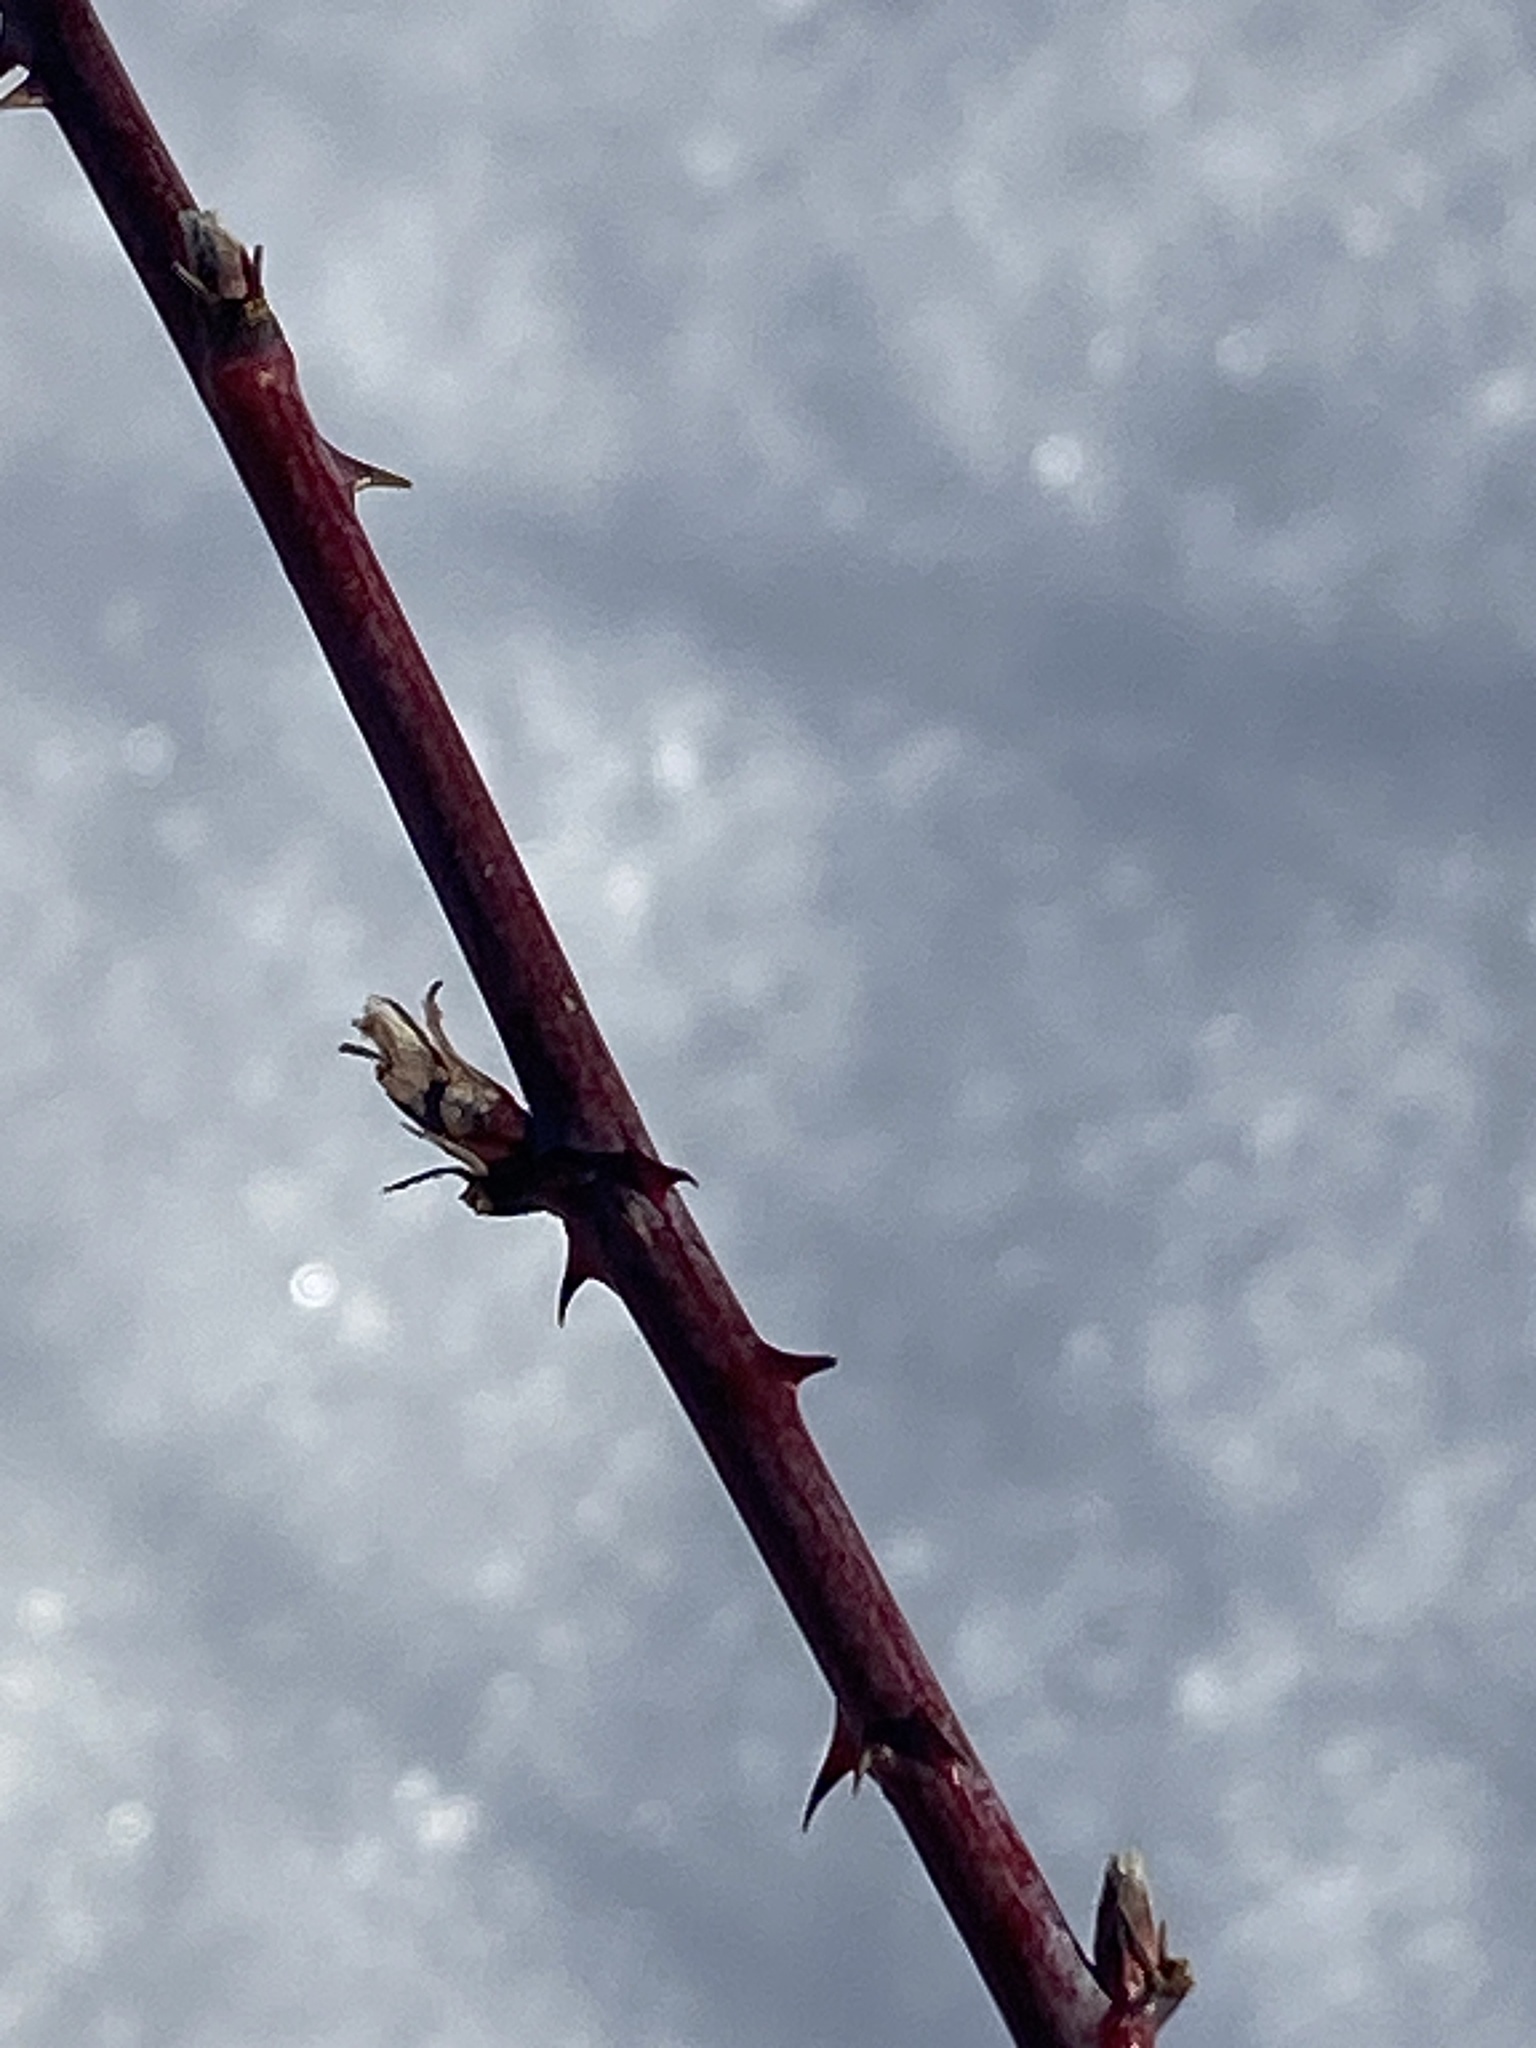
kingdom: Plantae
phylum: Tracheophyta
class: Magnoliopsida
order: Rosales
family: Rosaceae
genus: Rubus
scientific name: Rubus occidentalis
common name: Black raspberry
